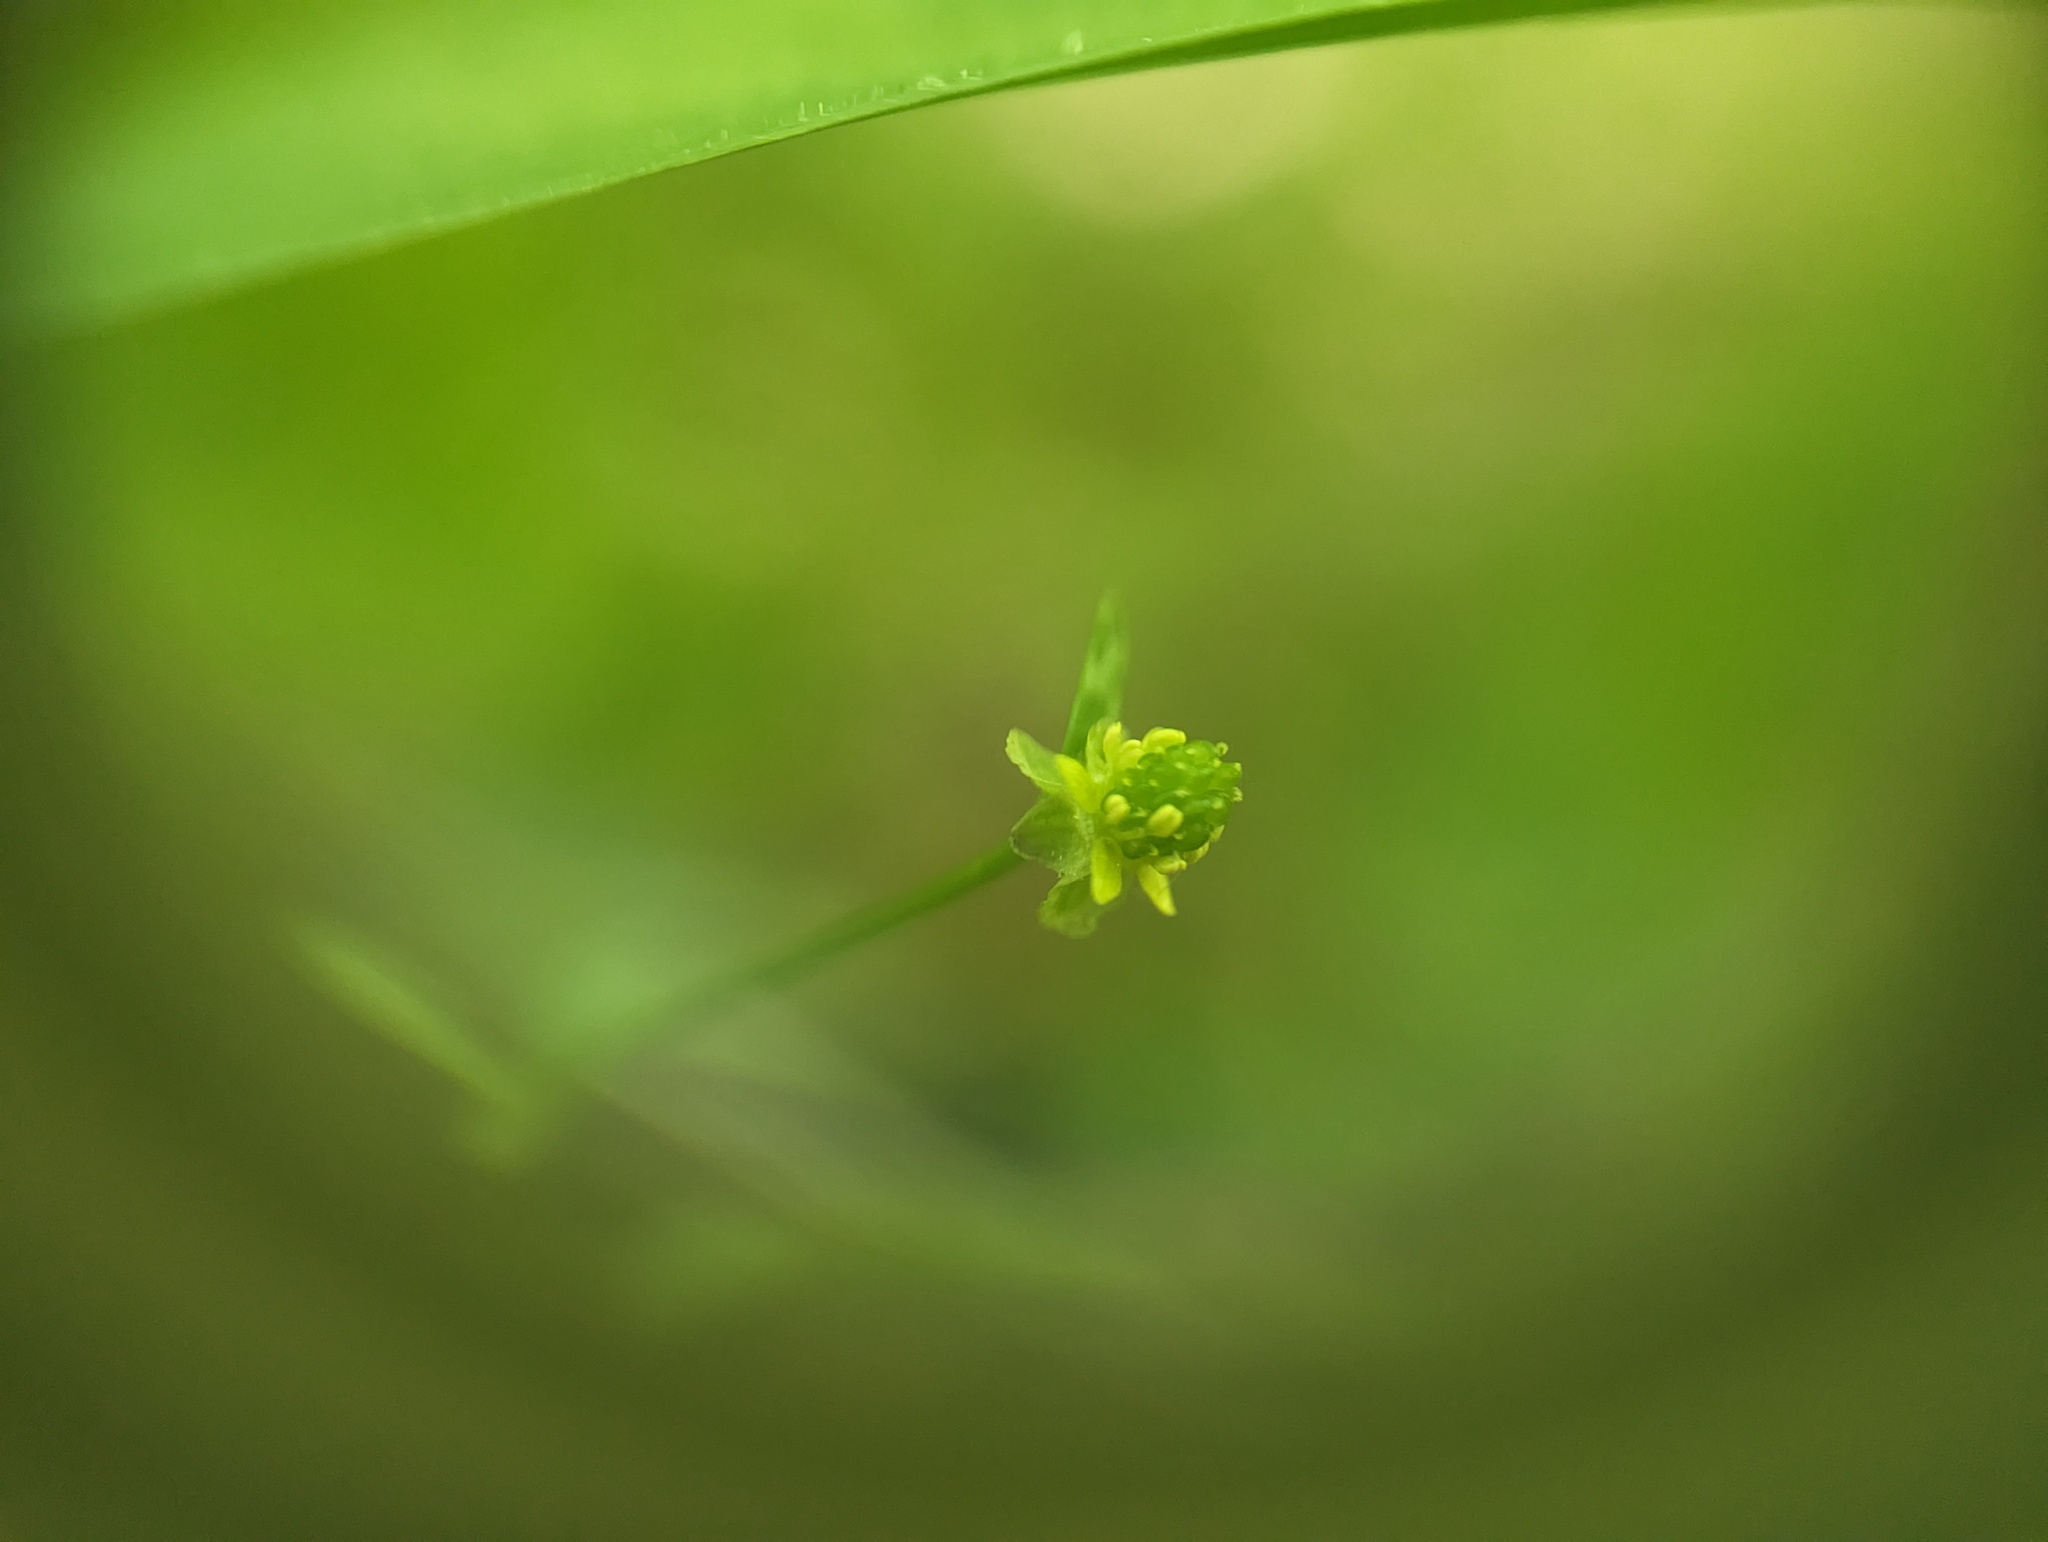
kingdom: Plantae
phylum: Tracheophyta
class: Magnoliopsida
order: Ranunculales
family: Ranunculaceae
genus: Ranunculus
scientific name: Ranunculus micranthus
